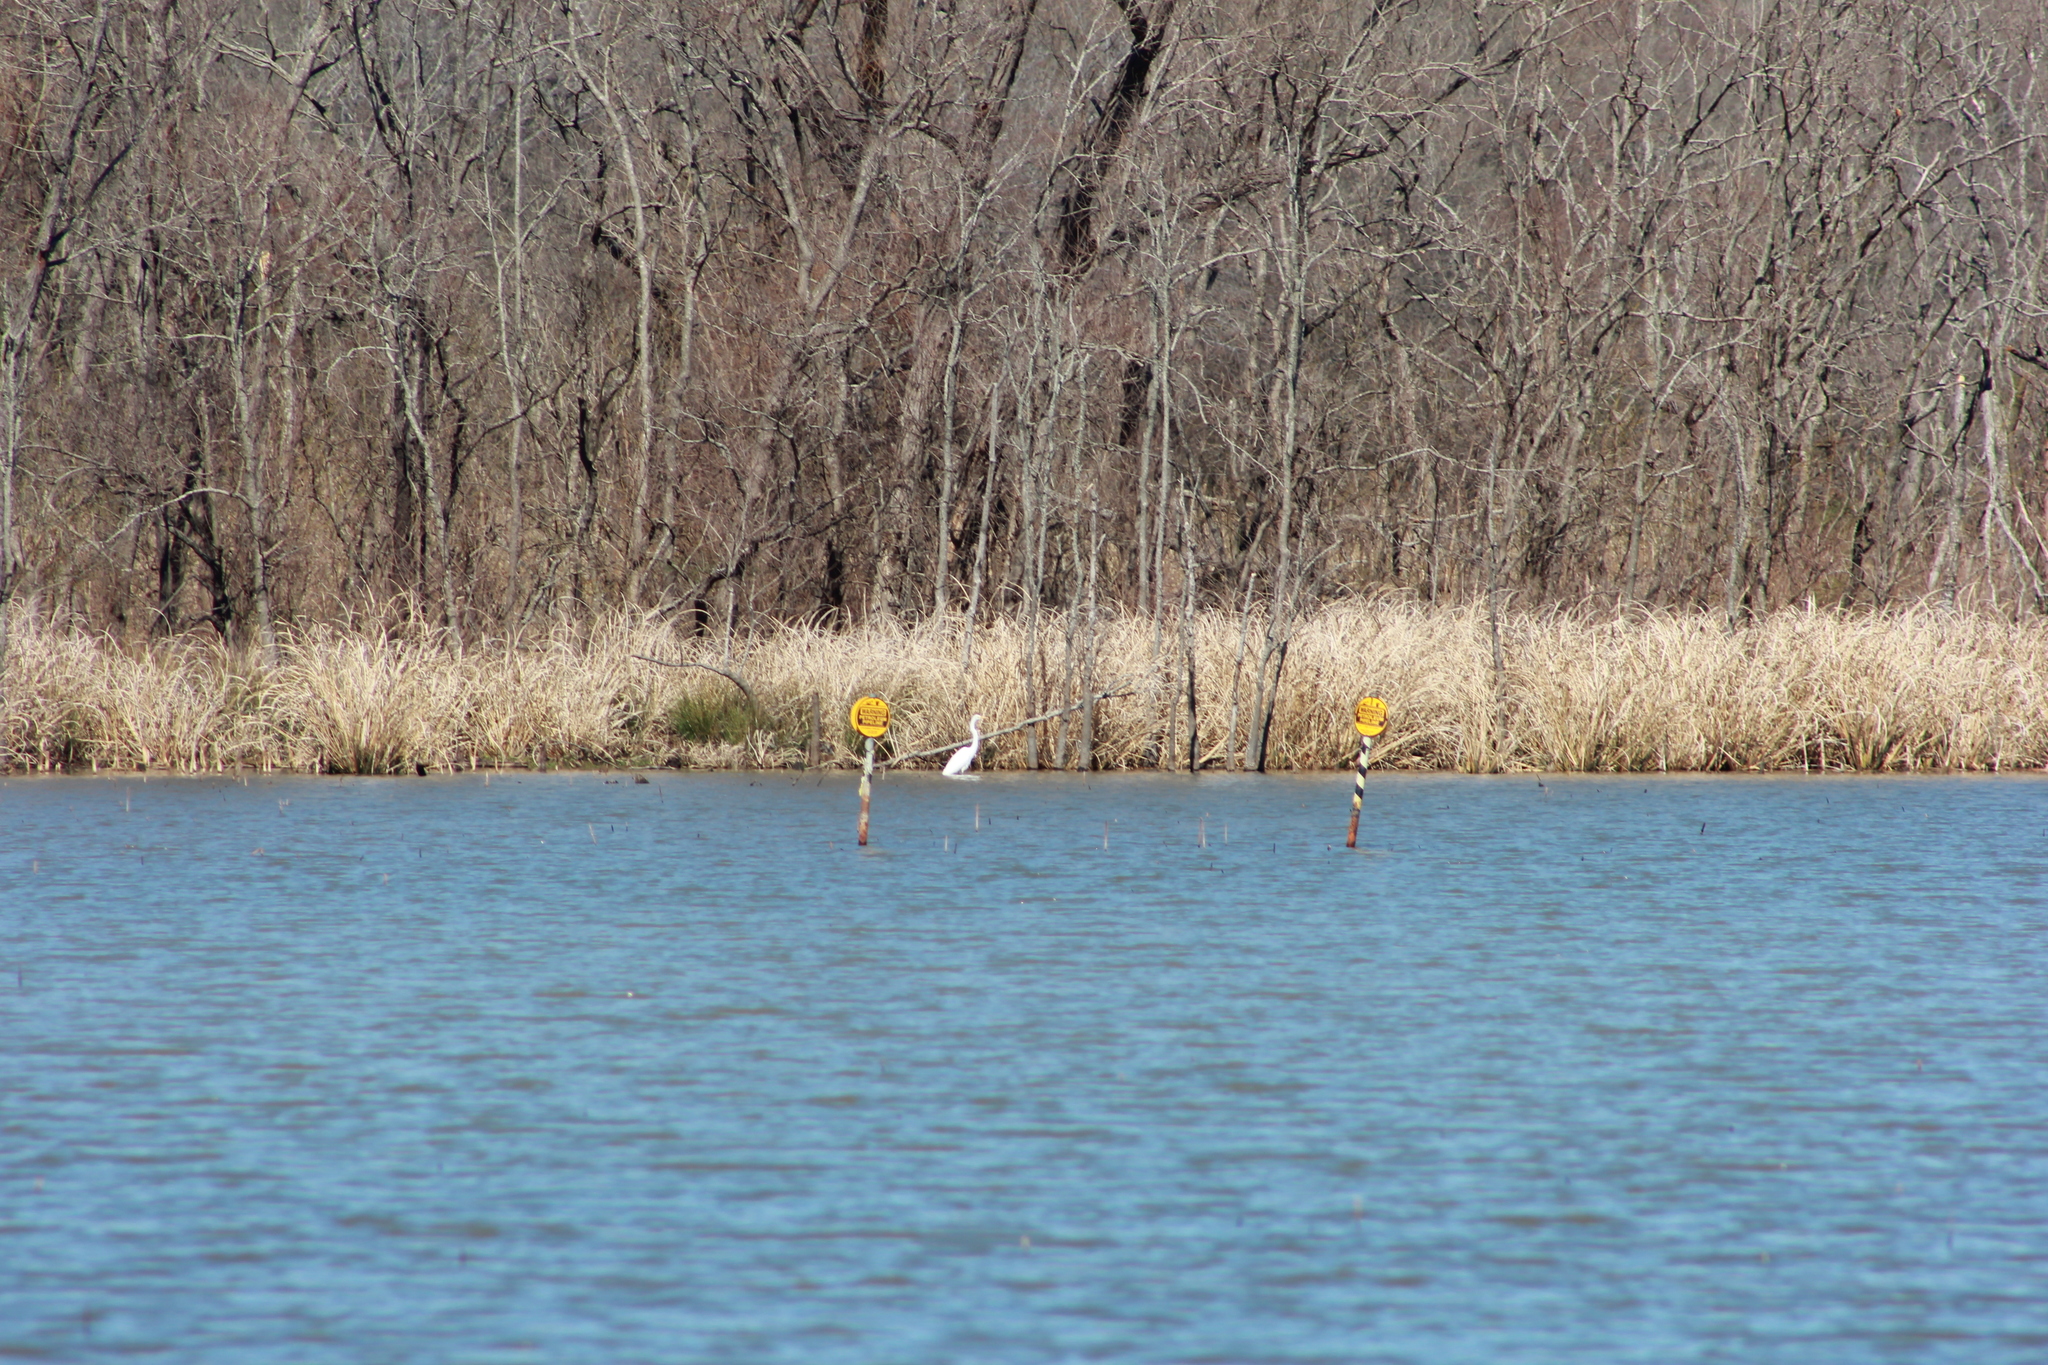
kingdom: Animalia
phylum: Chordata
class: Aves
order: Pelecaniformes
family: Ardeidae
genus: Ardea
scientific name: Ardea alba
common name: Great egret
